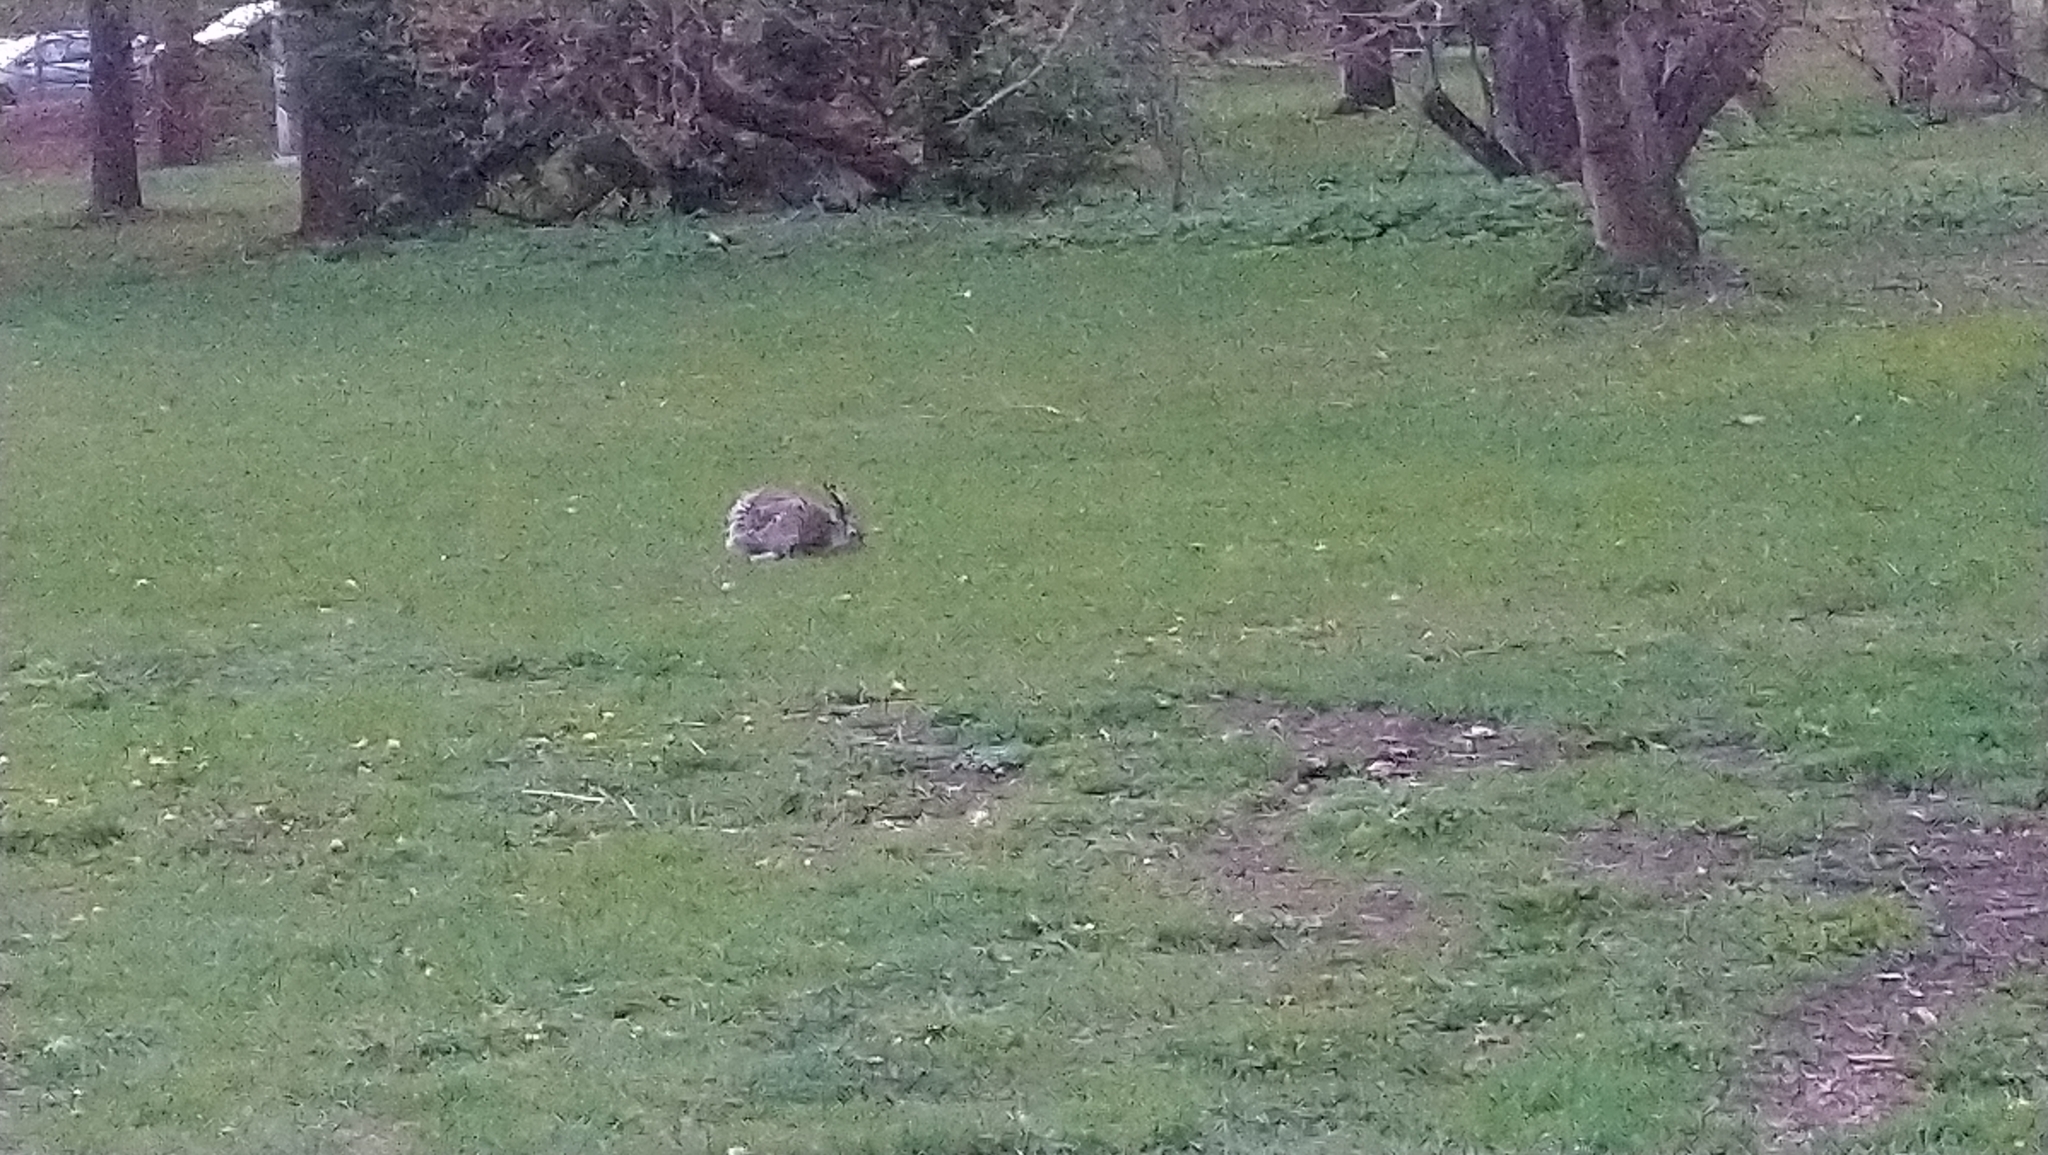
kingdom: Animalia
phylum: Chordata
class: Mammalia
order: Lagomorpha
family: Leporidae
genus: Lepus
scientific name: Lepus europaeus
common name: European hare
